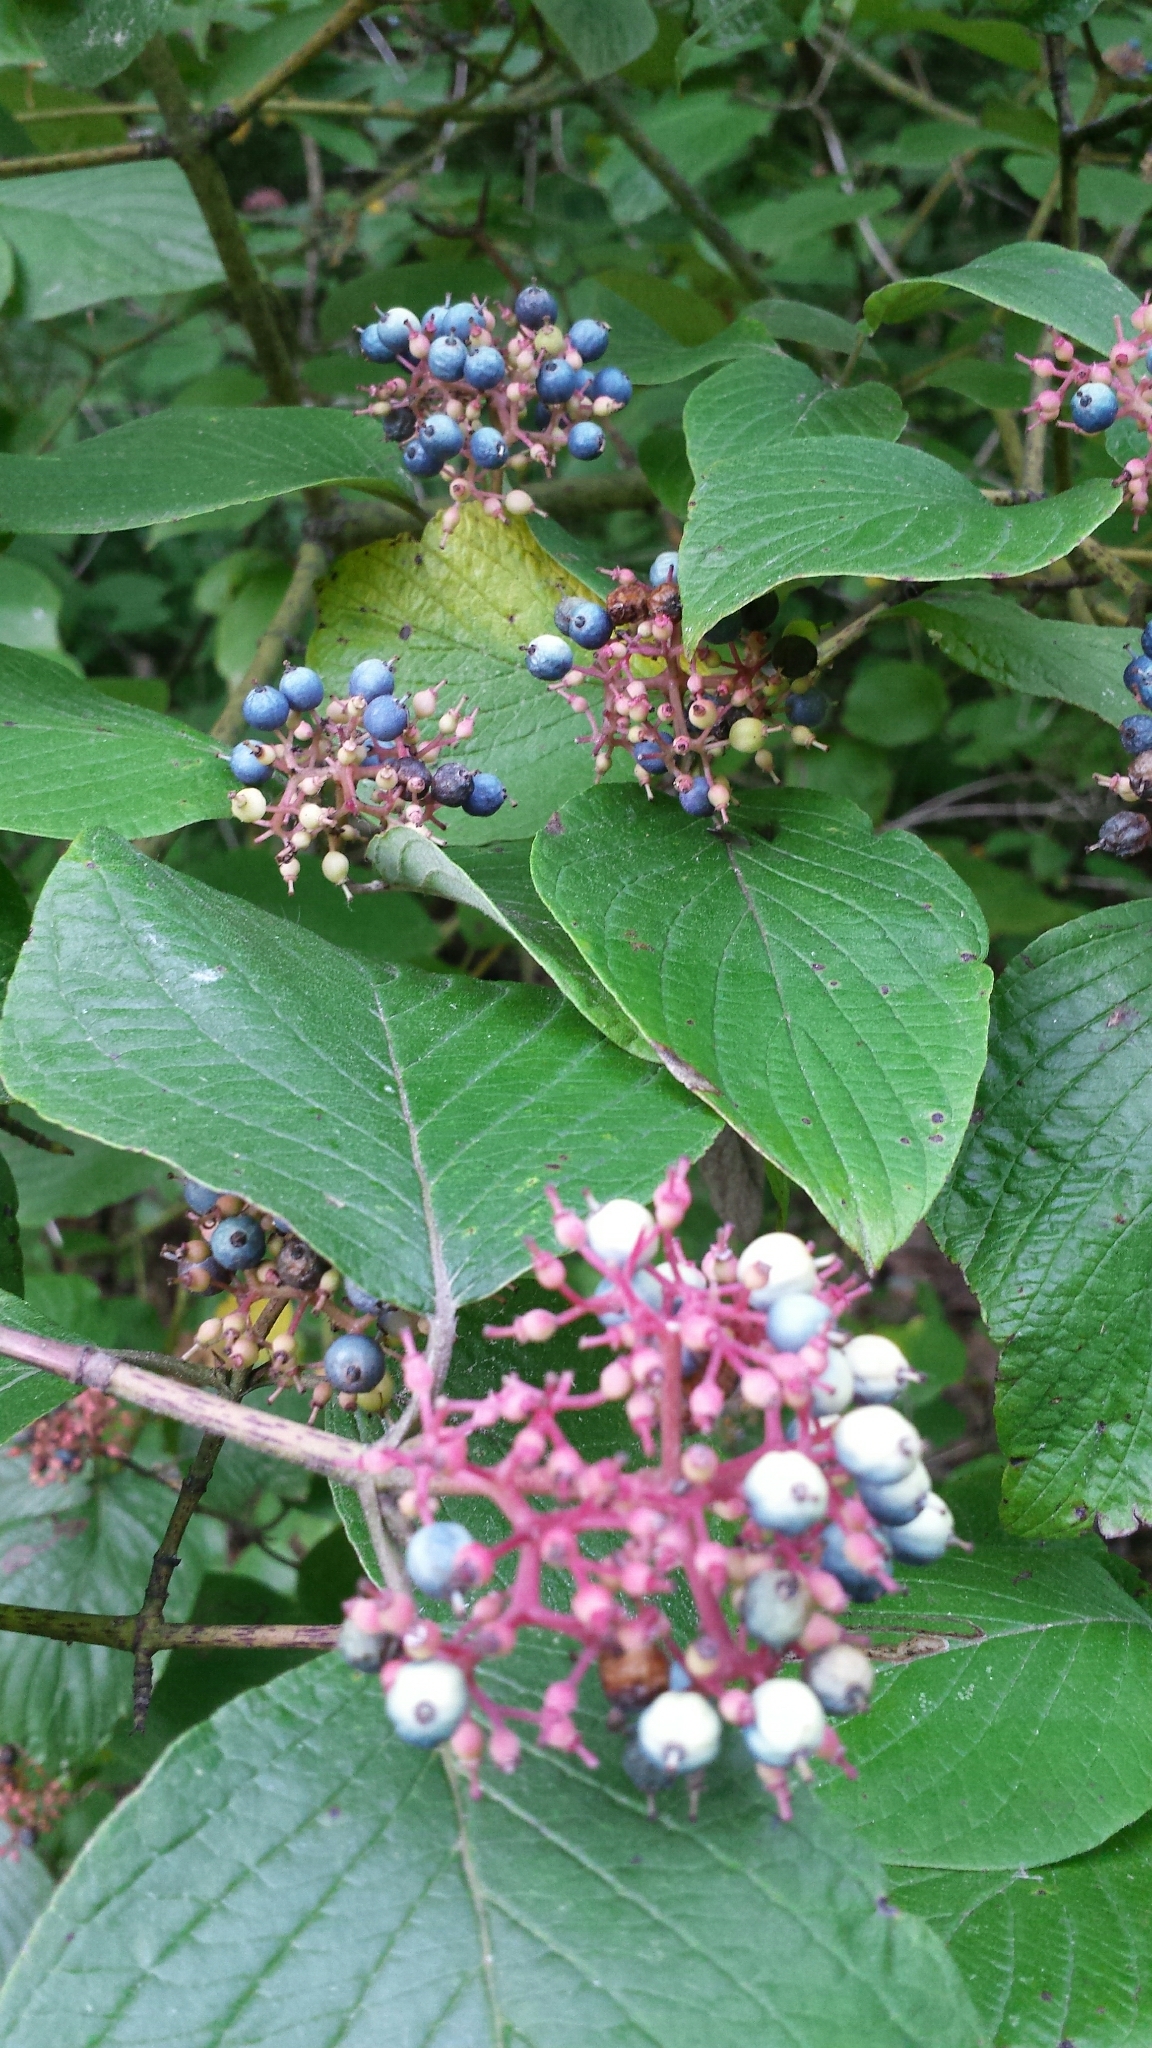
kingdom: Plantae
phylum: Tracheophyta
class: Magnoliopsida
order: Cornales
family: Cornaceae
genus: Cornus
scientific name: Cornus rugosa
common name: Round-leaf dogwood
